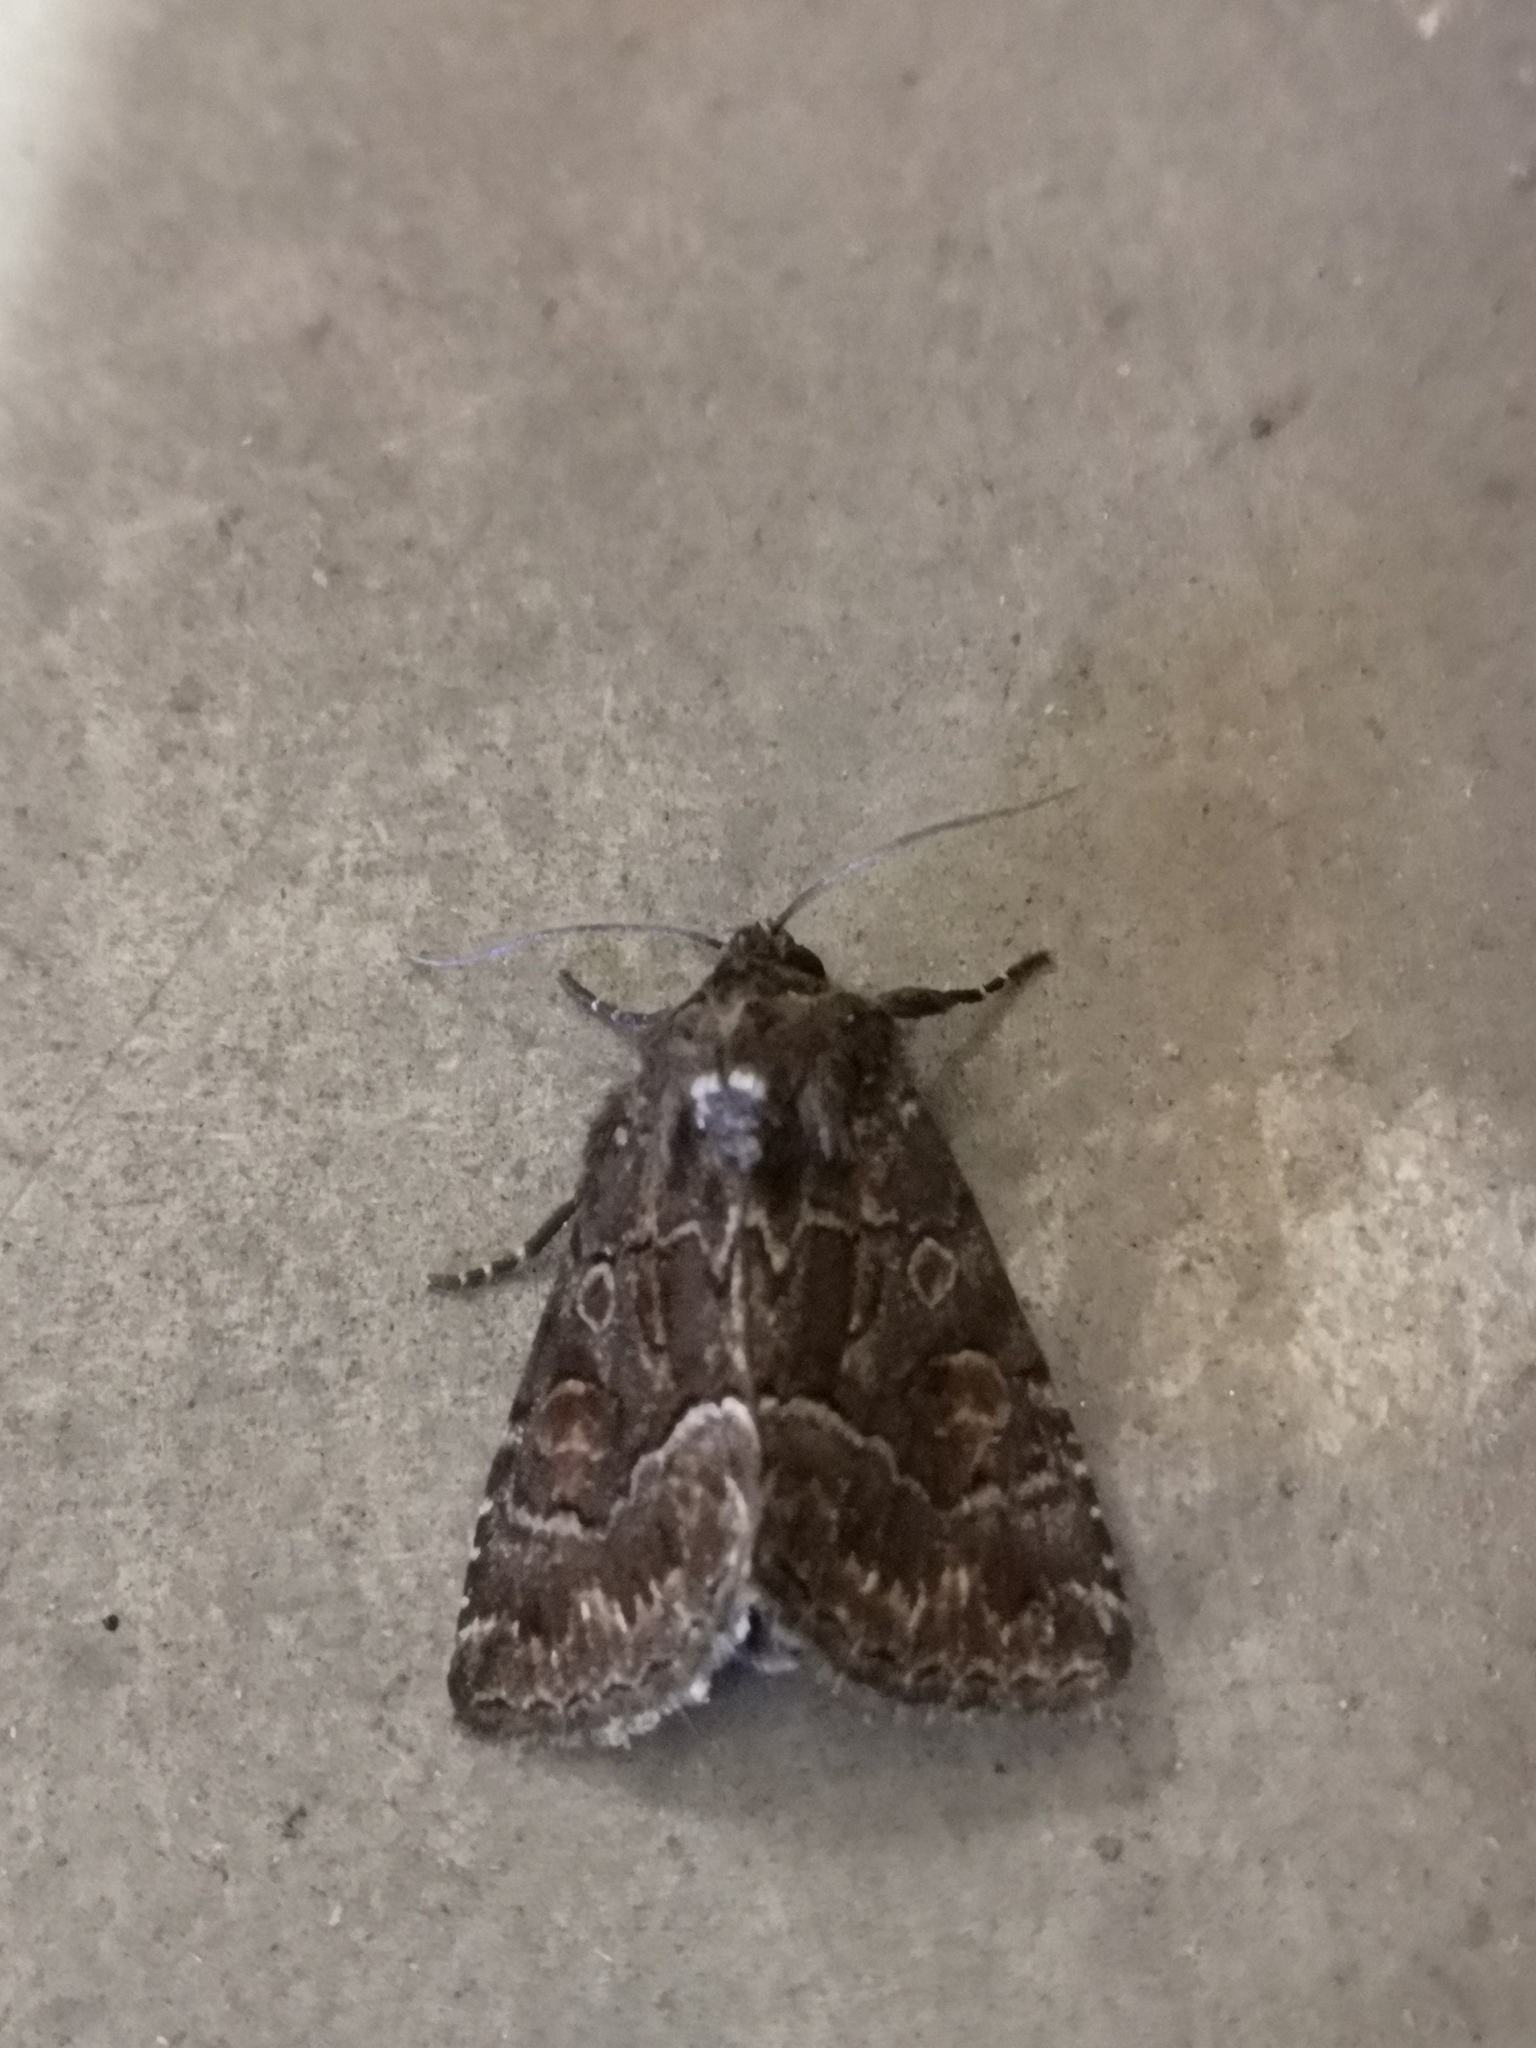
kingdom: Animalia
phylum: Arthropoda
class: Insecta
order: Lepidoptera
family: Noctuidae
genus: Thalpophila
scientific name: Thalpophila matura
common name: Straw underwing
